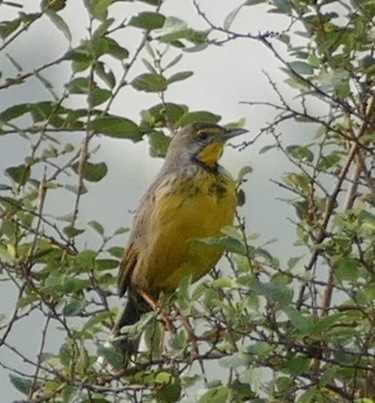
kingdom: Animalia
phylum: Chordata
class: Aves
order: Passeriformes
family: Motacillidae
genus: Macronyx
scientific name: Macronyx croceus
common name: Yellow-throated longclaw
